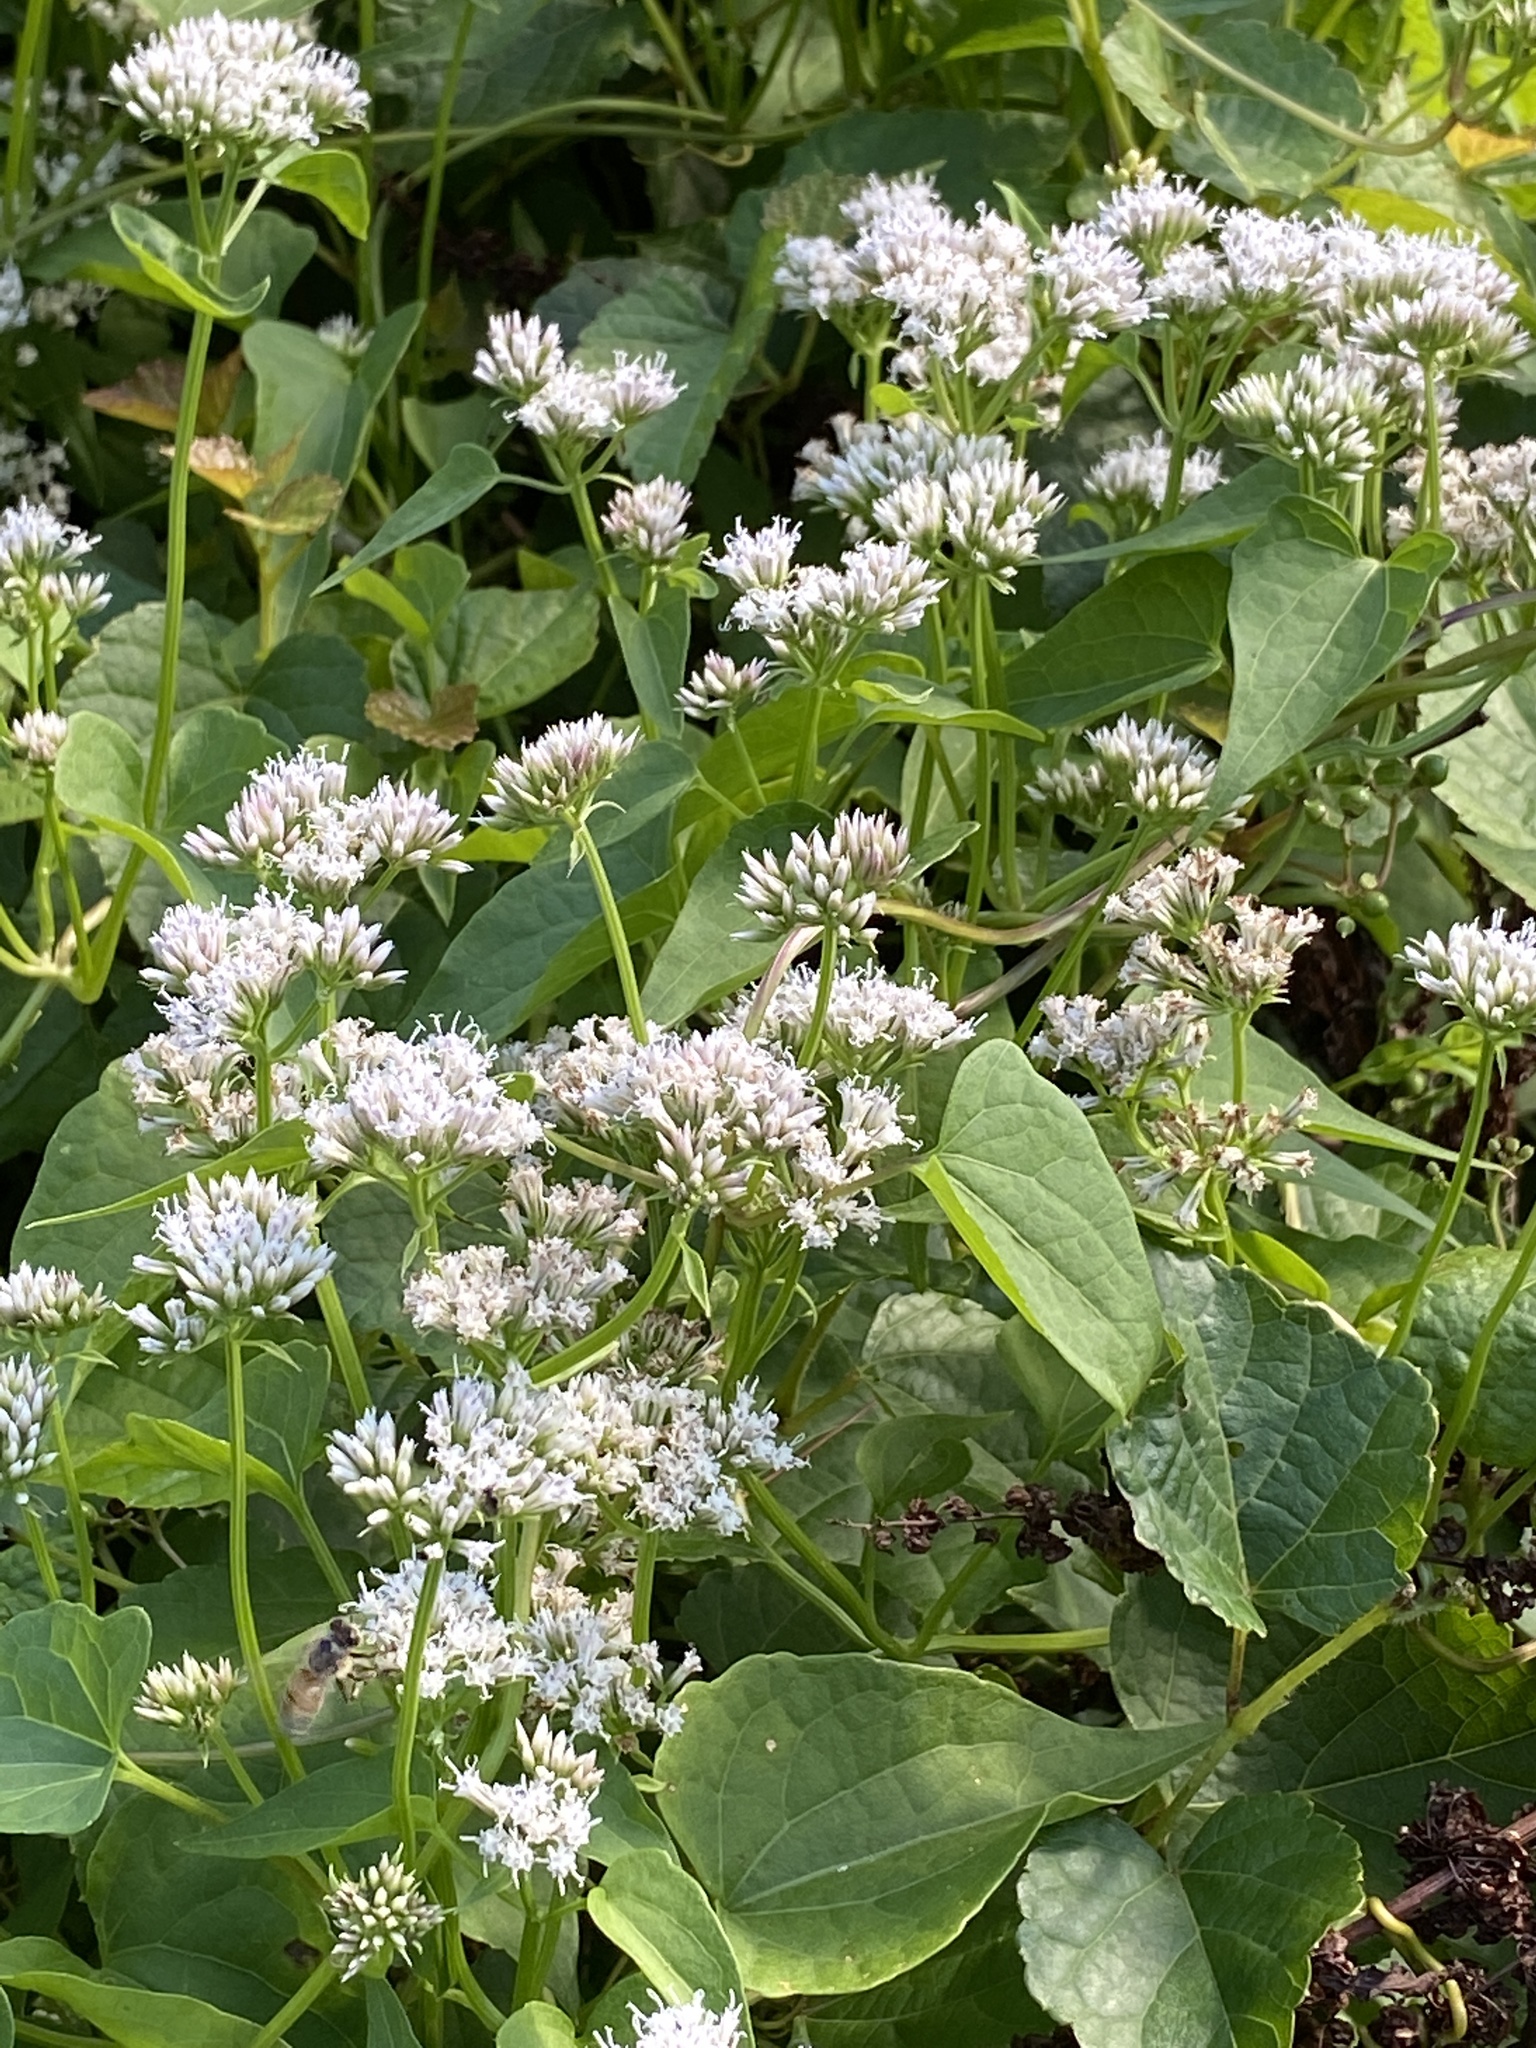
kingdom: Plantae
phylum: Tracheophyta
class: Magnoliopsida
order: Asterales
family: Asteraceae
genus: Mikania
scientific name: Mikania scandens
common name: Climbing hempvine
